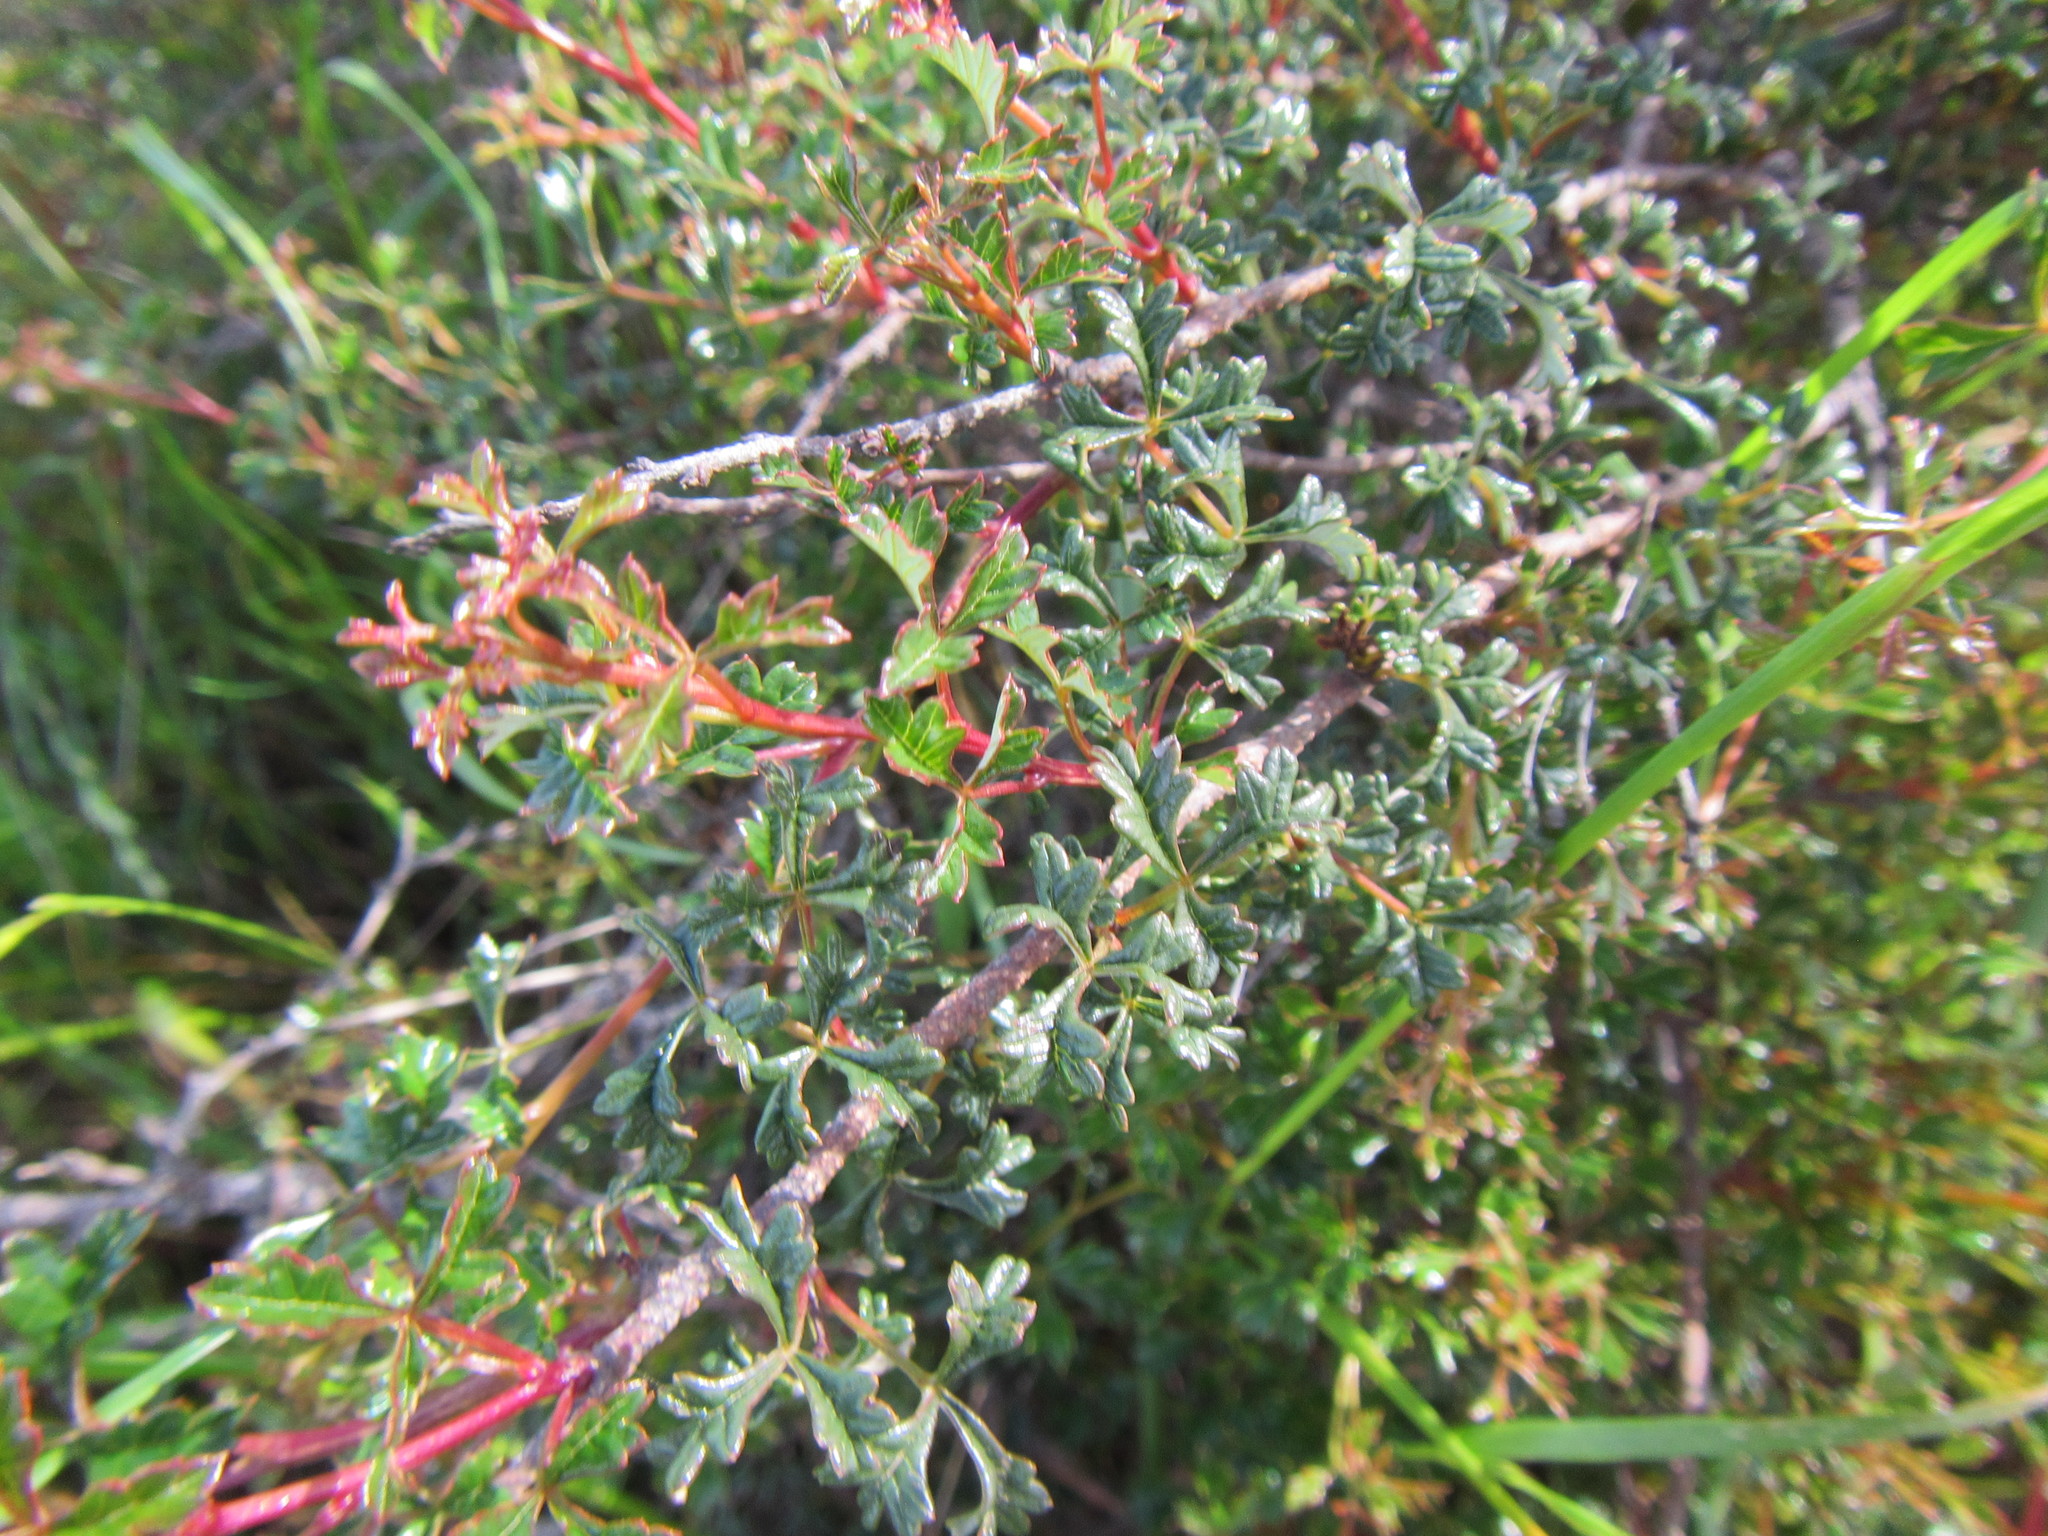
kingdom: Plantae
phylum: Tracheophyta
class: Magnoliopsida
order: Sapindales
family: Anacardiaceae
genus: Searsia
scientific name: Searsia dissecta
